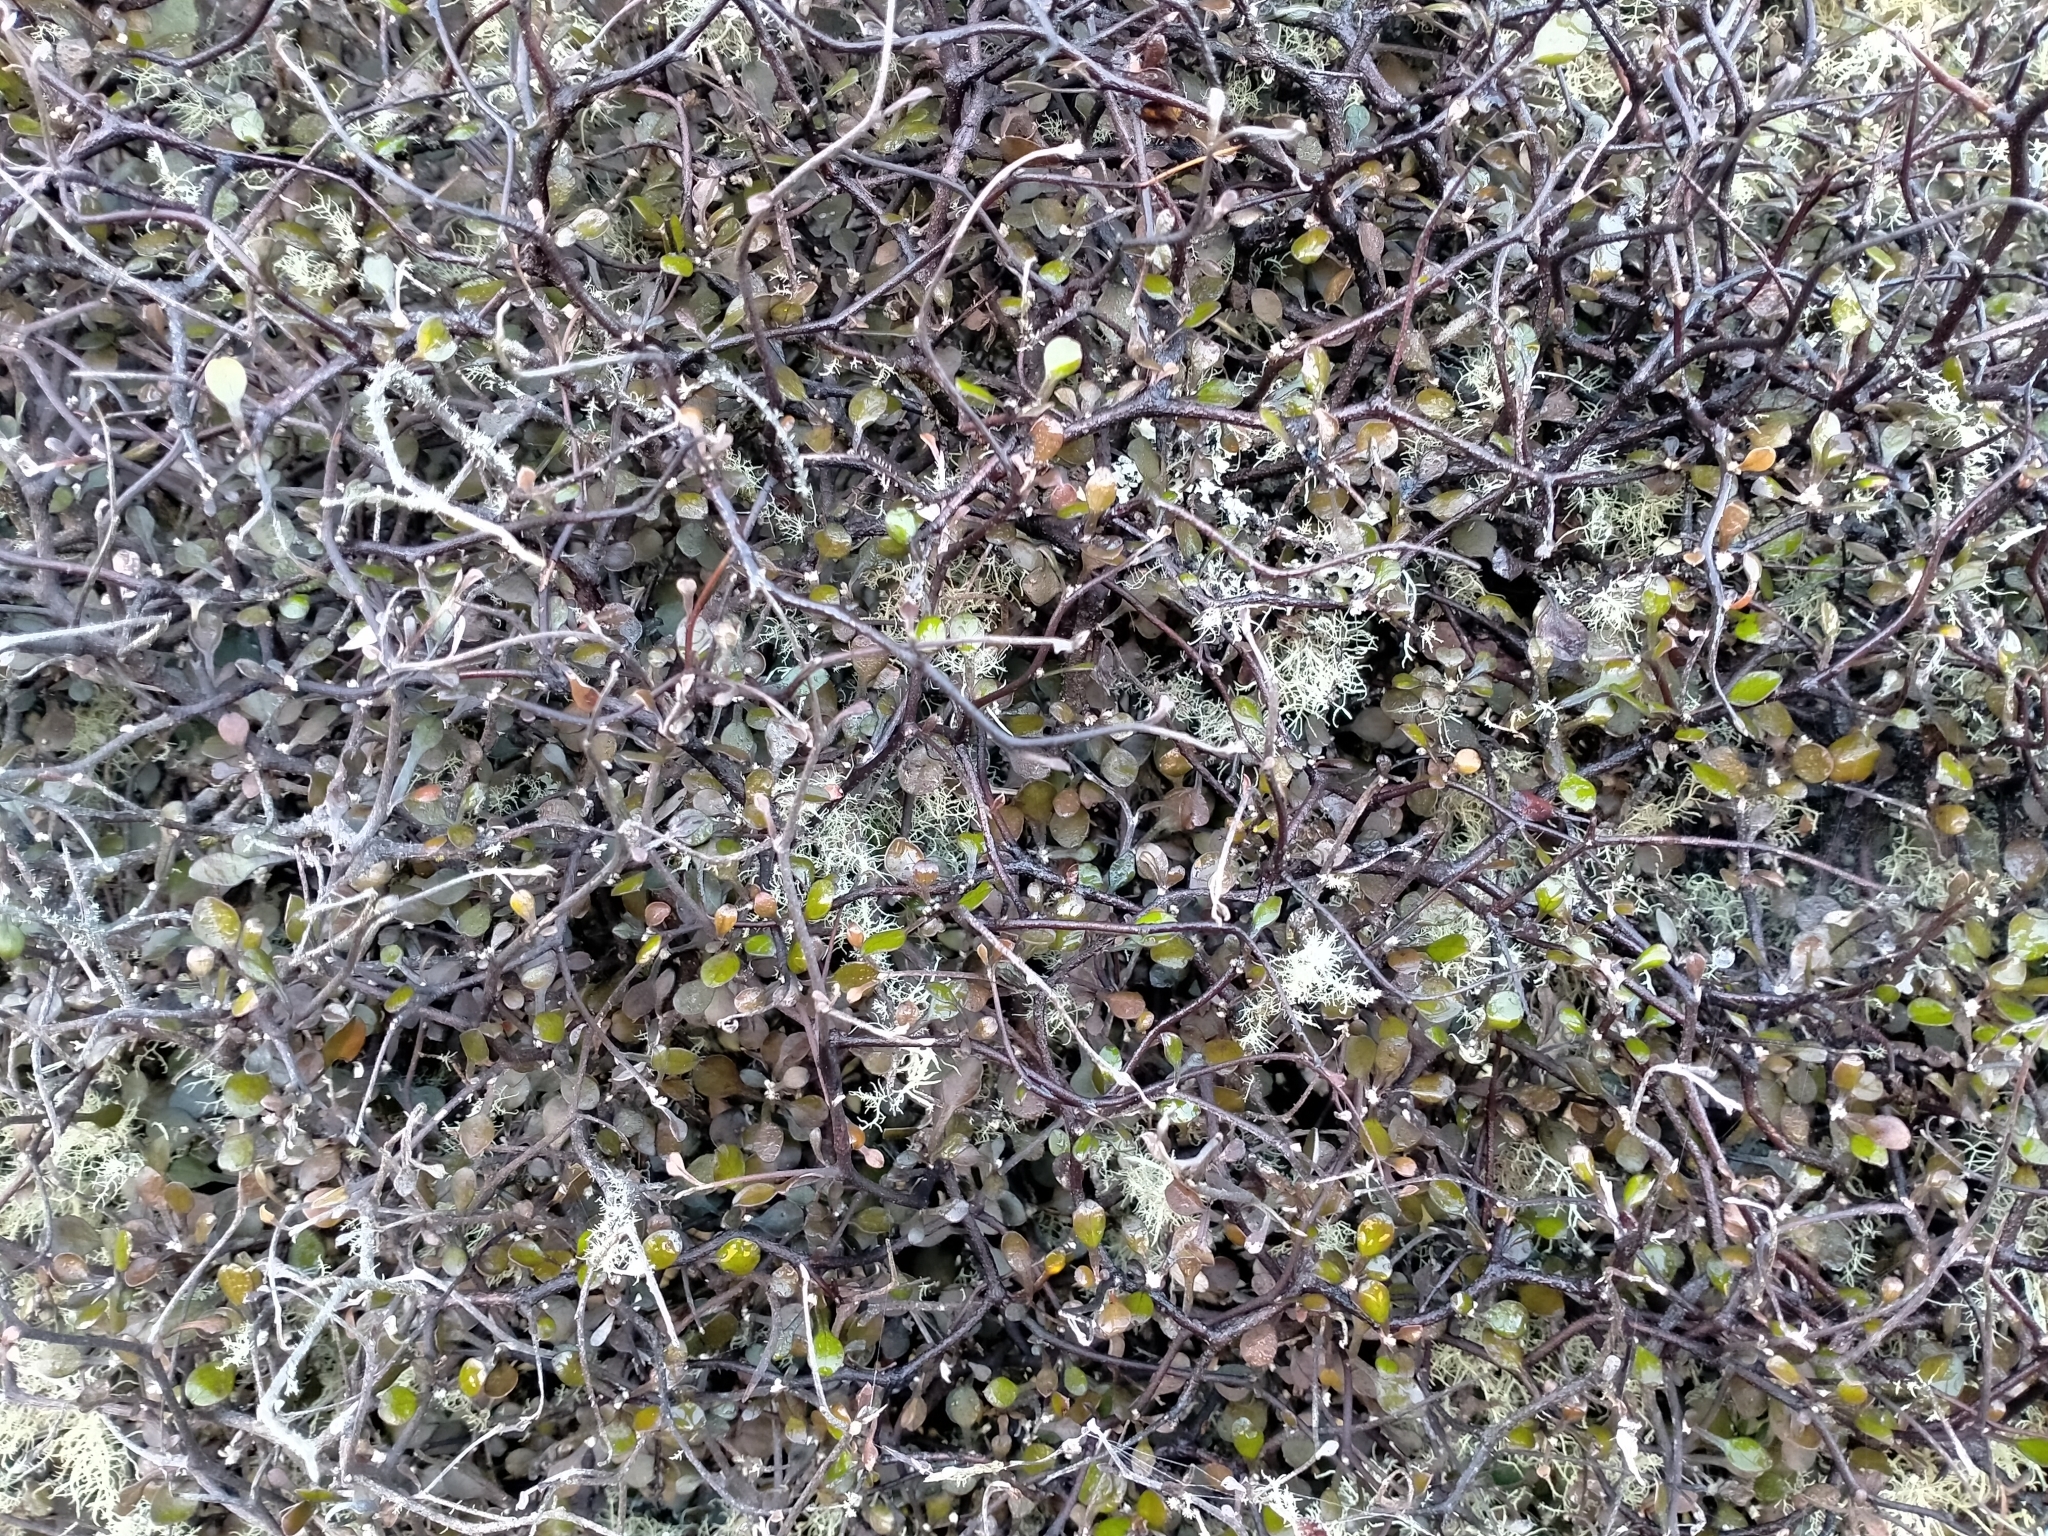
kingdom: Plantae
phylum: Tracheophyta
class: Magnoliopsida
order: Asterales
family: Argophyllaceae
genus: Corokia
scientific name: Corokia cotoneaster
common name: Wire nettingbush
